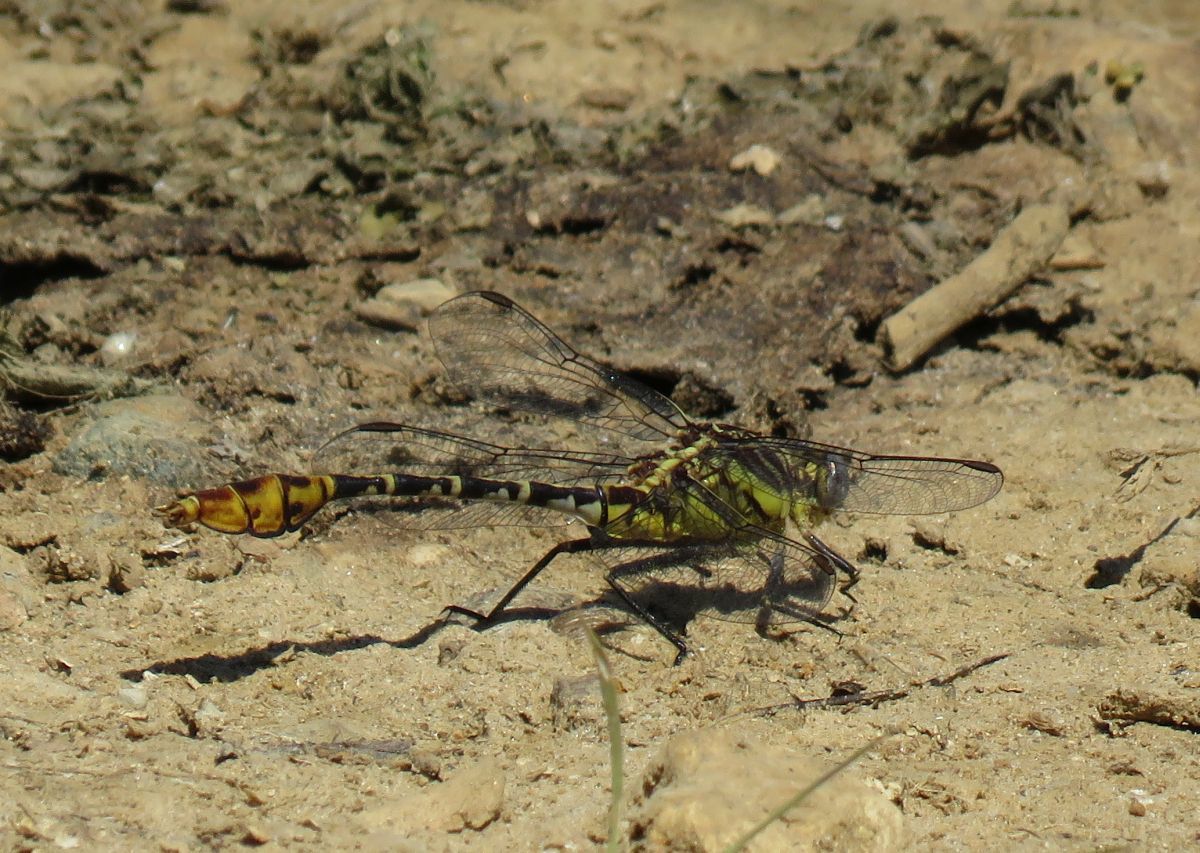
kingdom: Animalia
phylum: Arthropoda
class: Insecta
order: Odonata
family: Gomphidae
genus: Dromogomphus
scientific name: Dromogomphus spoliatus
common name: Flag-tailed spinyleg
